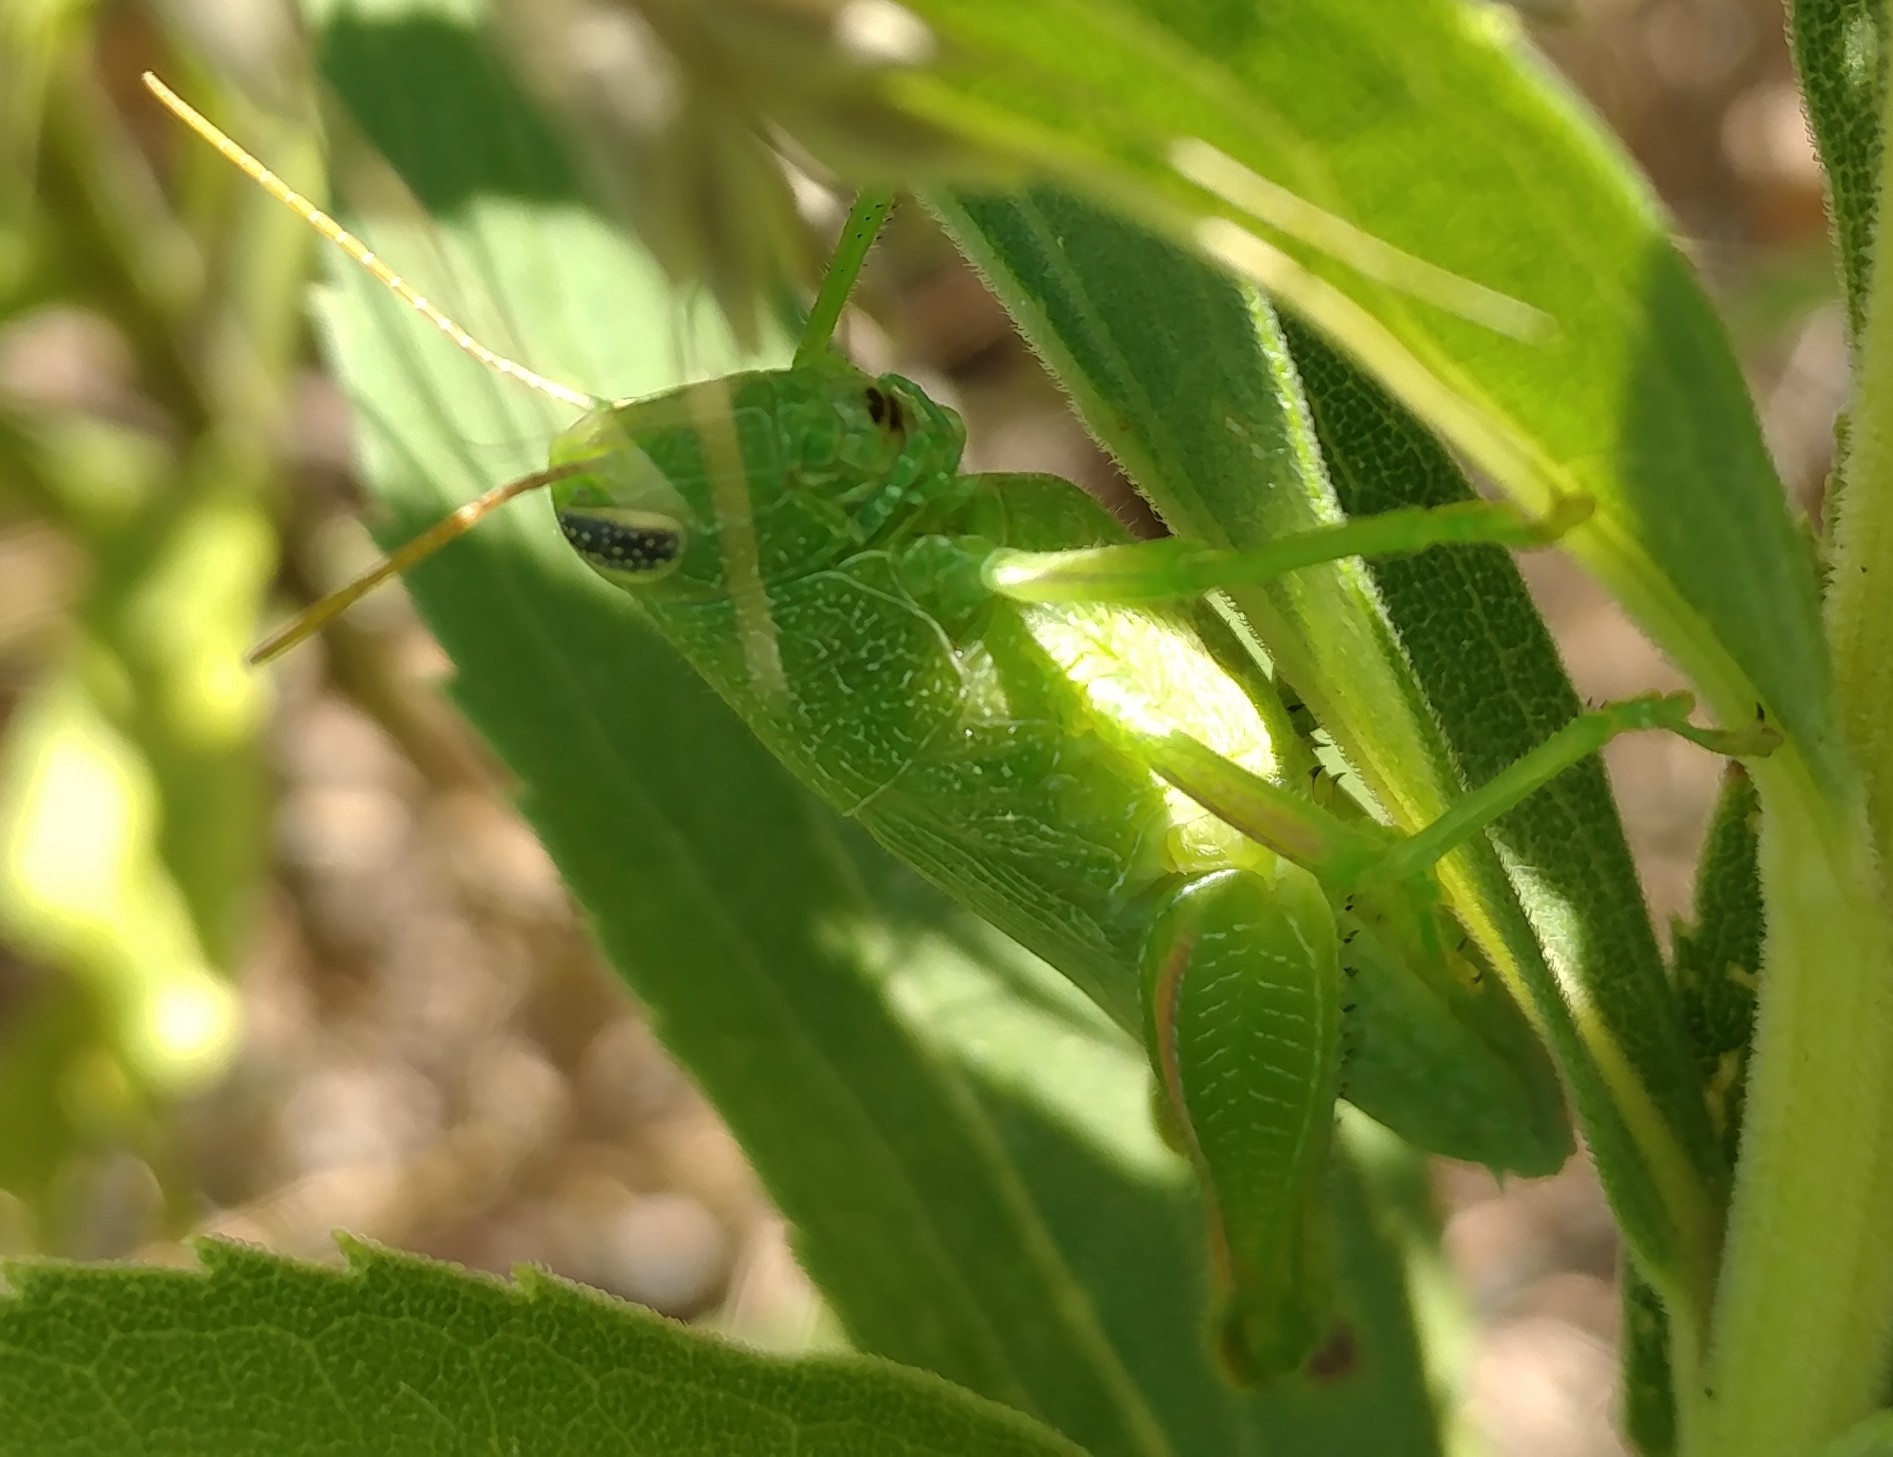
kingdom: Animalia
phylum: Arthropoda
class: Insecta
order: Orthoptera
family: Acrididae
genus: Hesperotettix
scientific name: Hesperotettix speciosus
